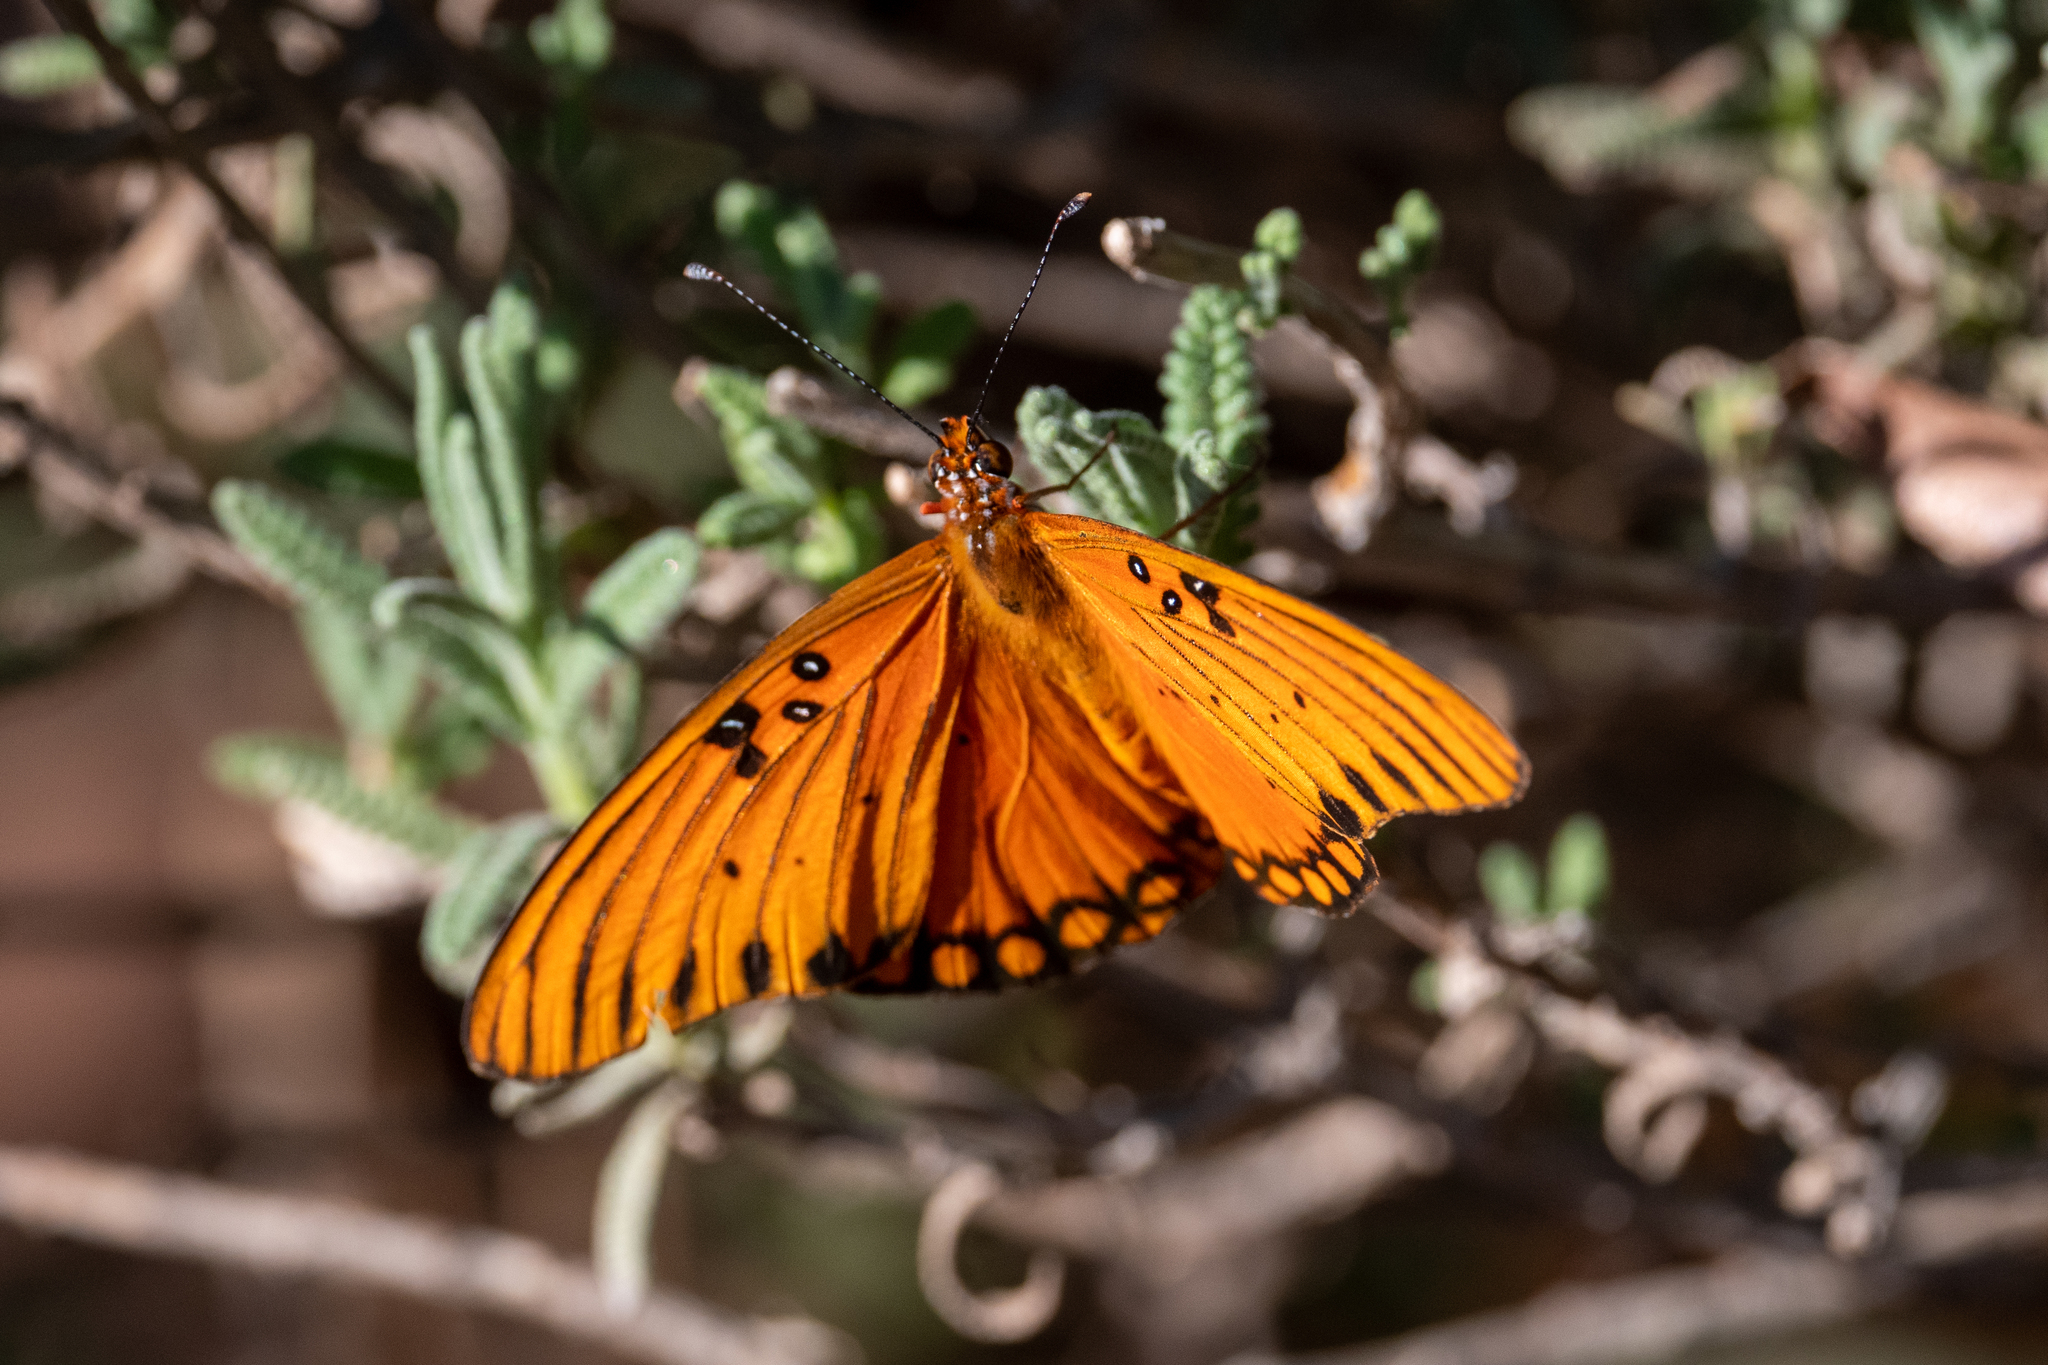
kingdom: Animalia
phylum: Arthropoda
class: Insecta
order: Lepidoptera
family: Nymphalidae
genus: Dione
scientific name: Dione vanillae
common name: Gulf fritillary
